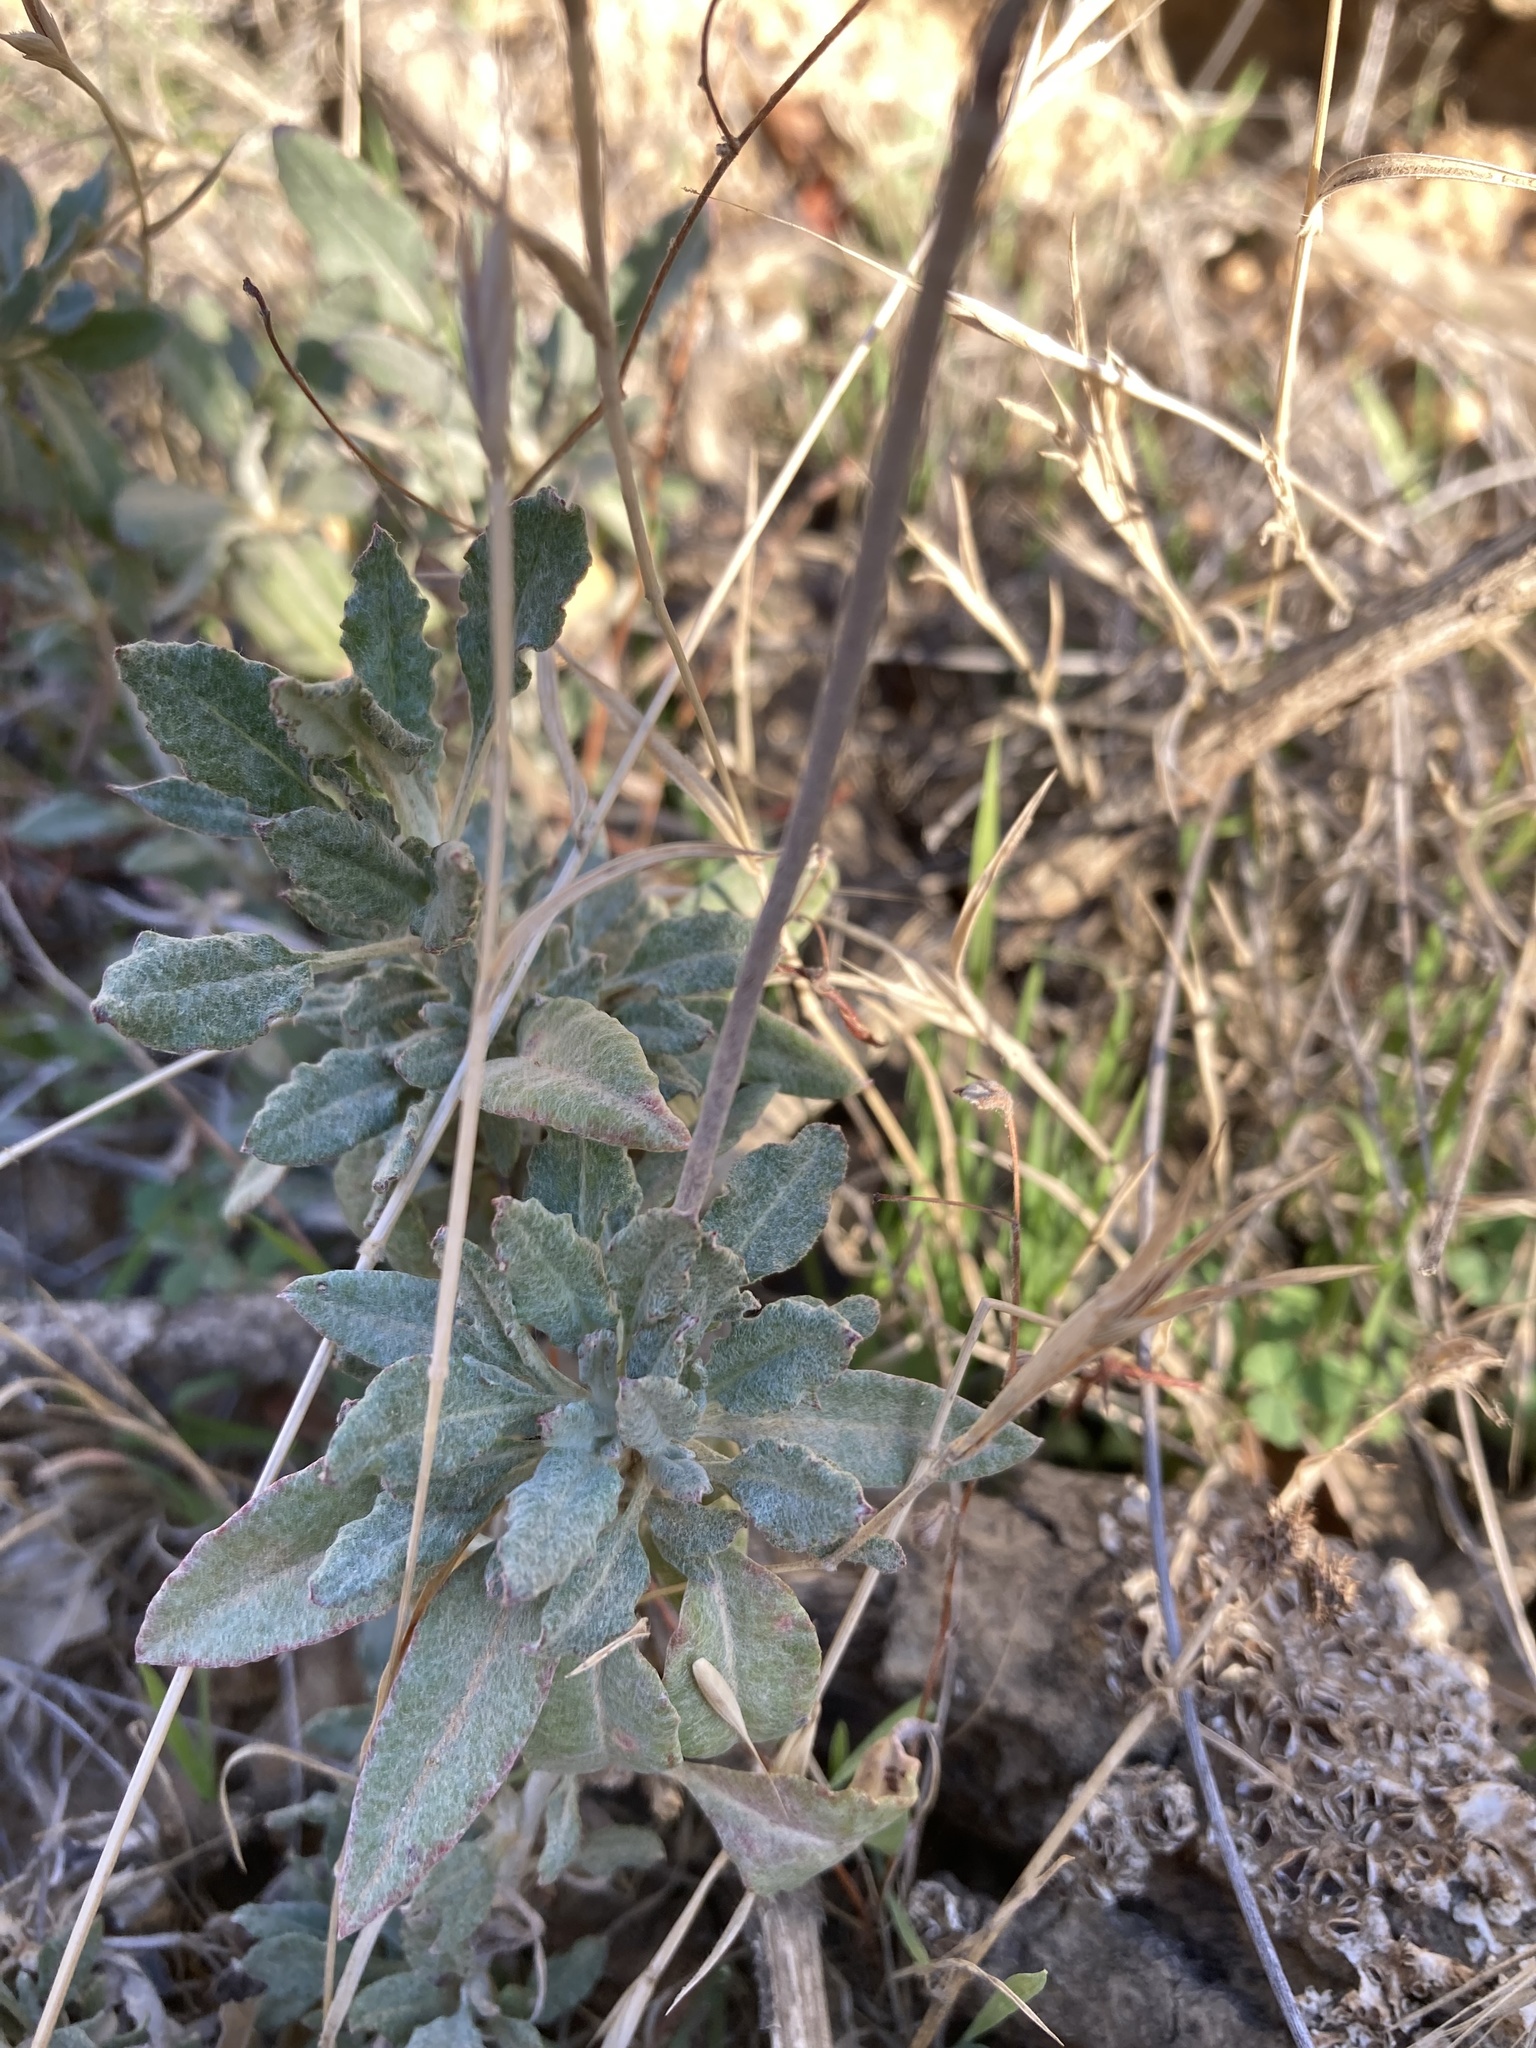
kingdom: Plantae
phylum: Tracheophyta
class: Magnoliopsida
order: Caryophyllales
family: Polygonaceae
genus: Eriogonum
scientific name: Eriogonum elongatum
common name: Long-stem wild buckwheat
